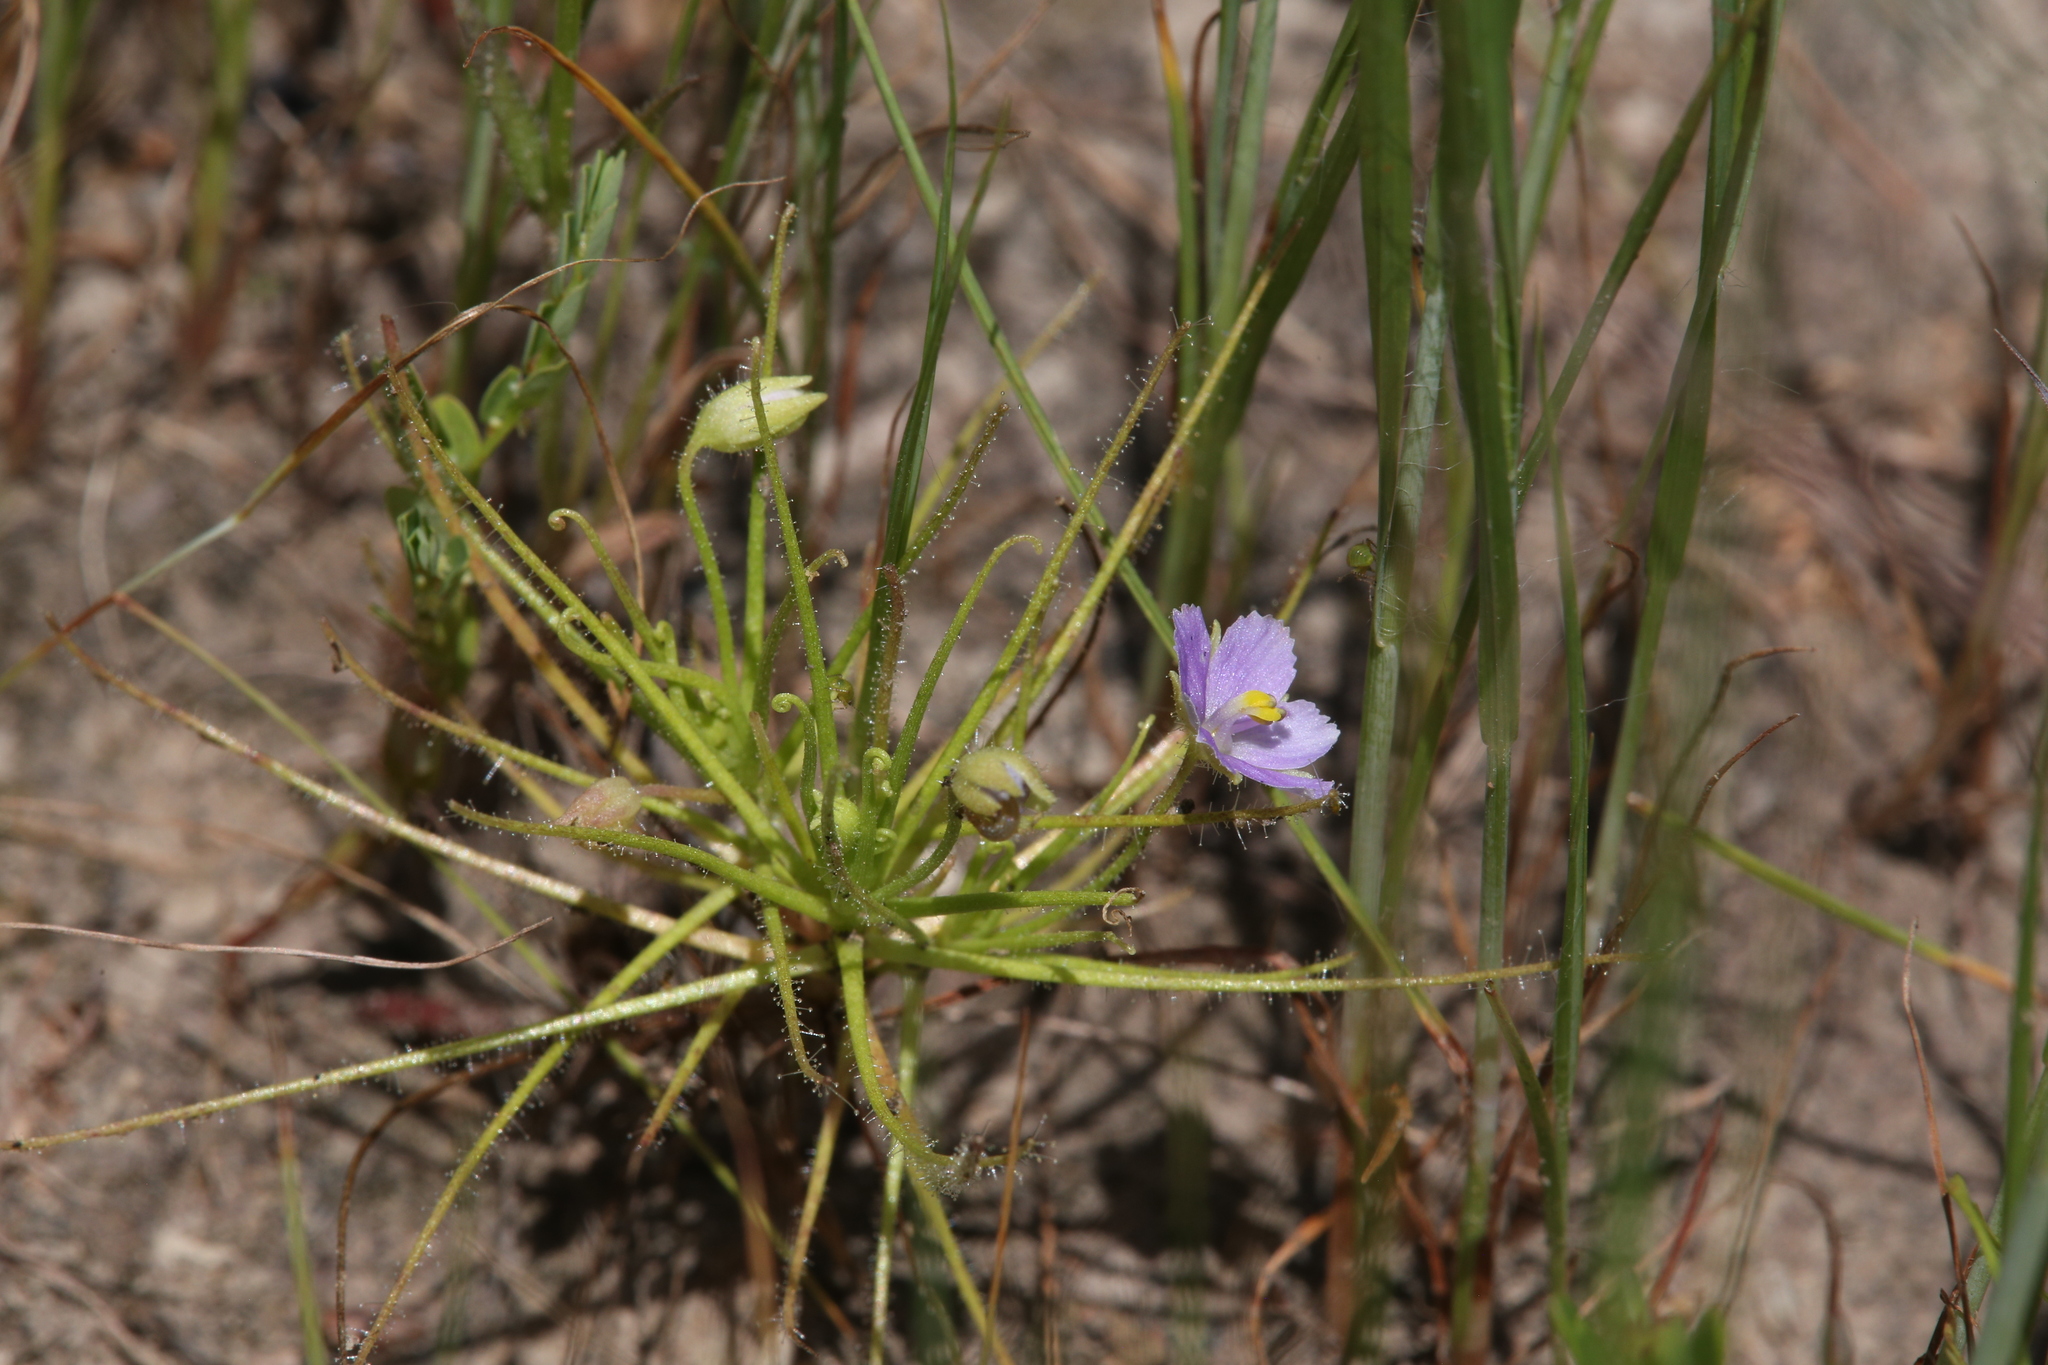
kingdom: Plantae
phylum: Tracheophyta
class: Magnoliopsida
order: Lamiales
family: Byblidaceae
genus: Byblis
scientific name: Byblis liniflora
